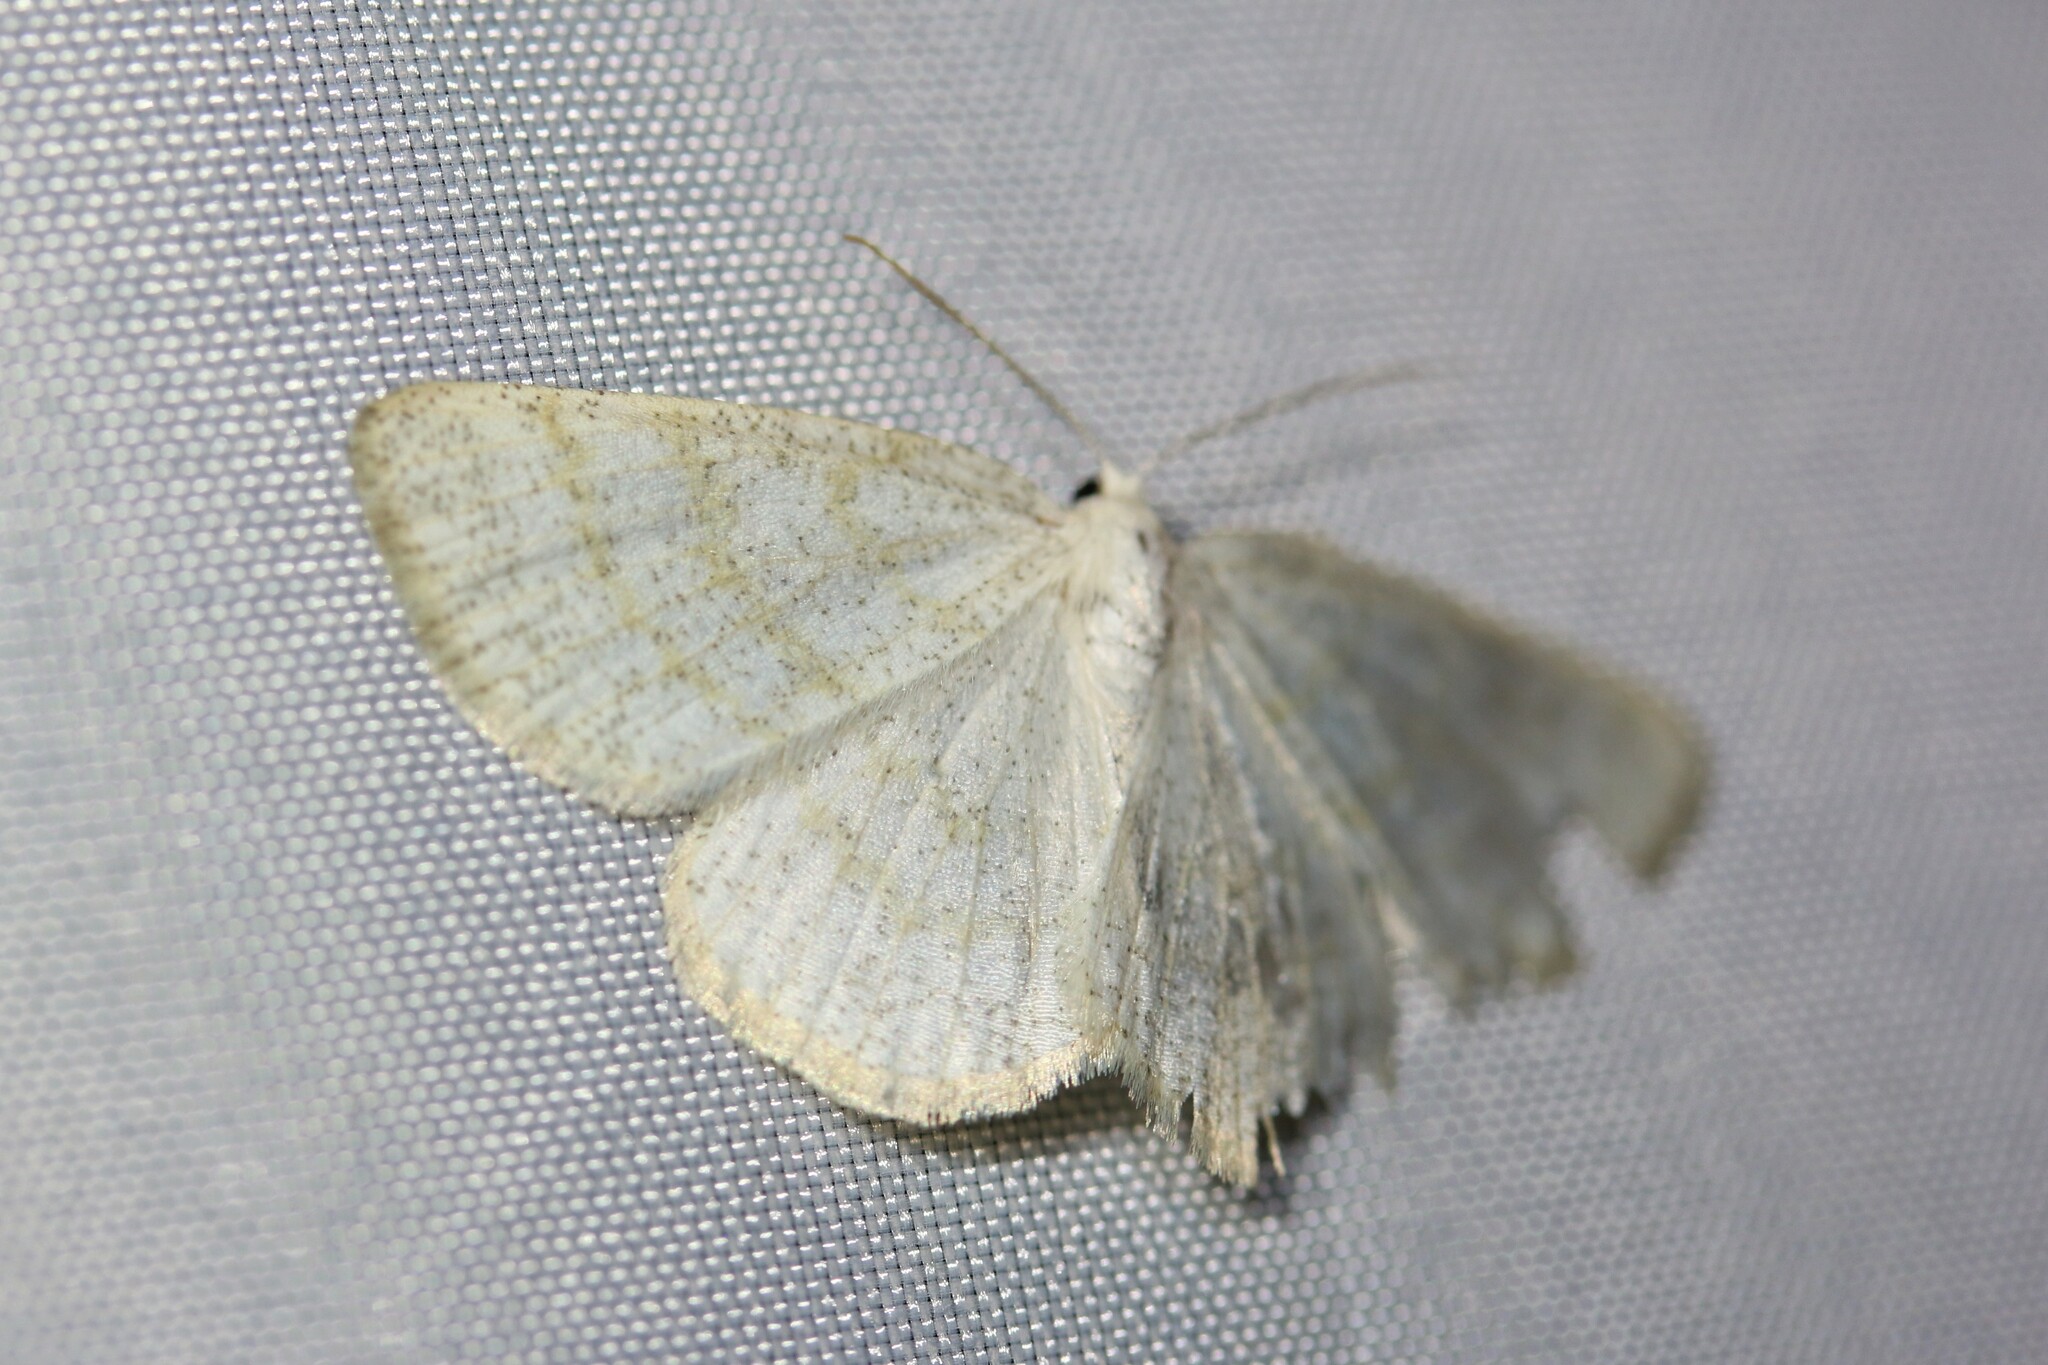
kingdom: Animalia
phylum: Arthropoda
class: Insecta
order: Lepidoptera
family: Geometridae
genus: Cabera
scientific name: Cabera exanthemata
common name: Common wave
